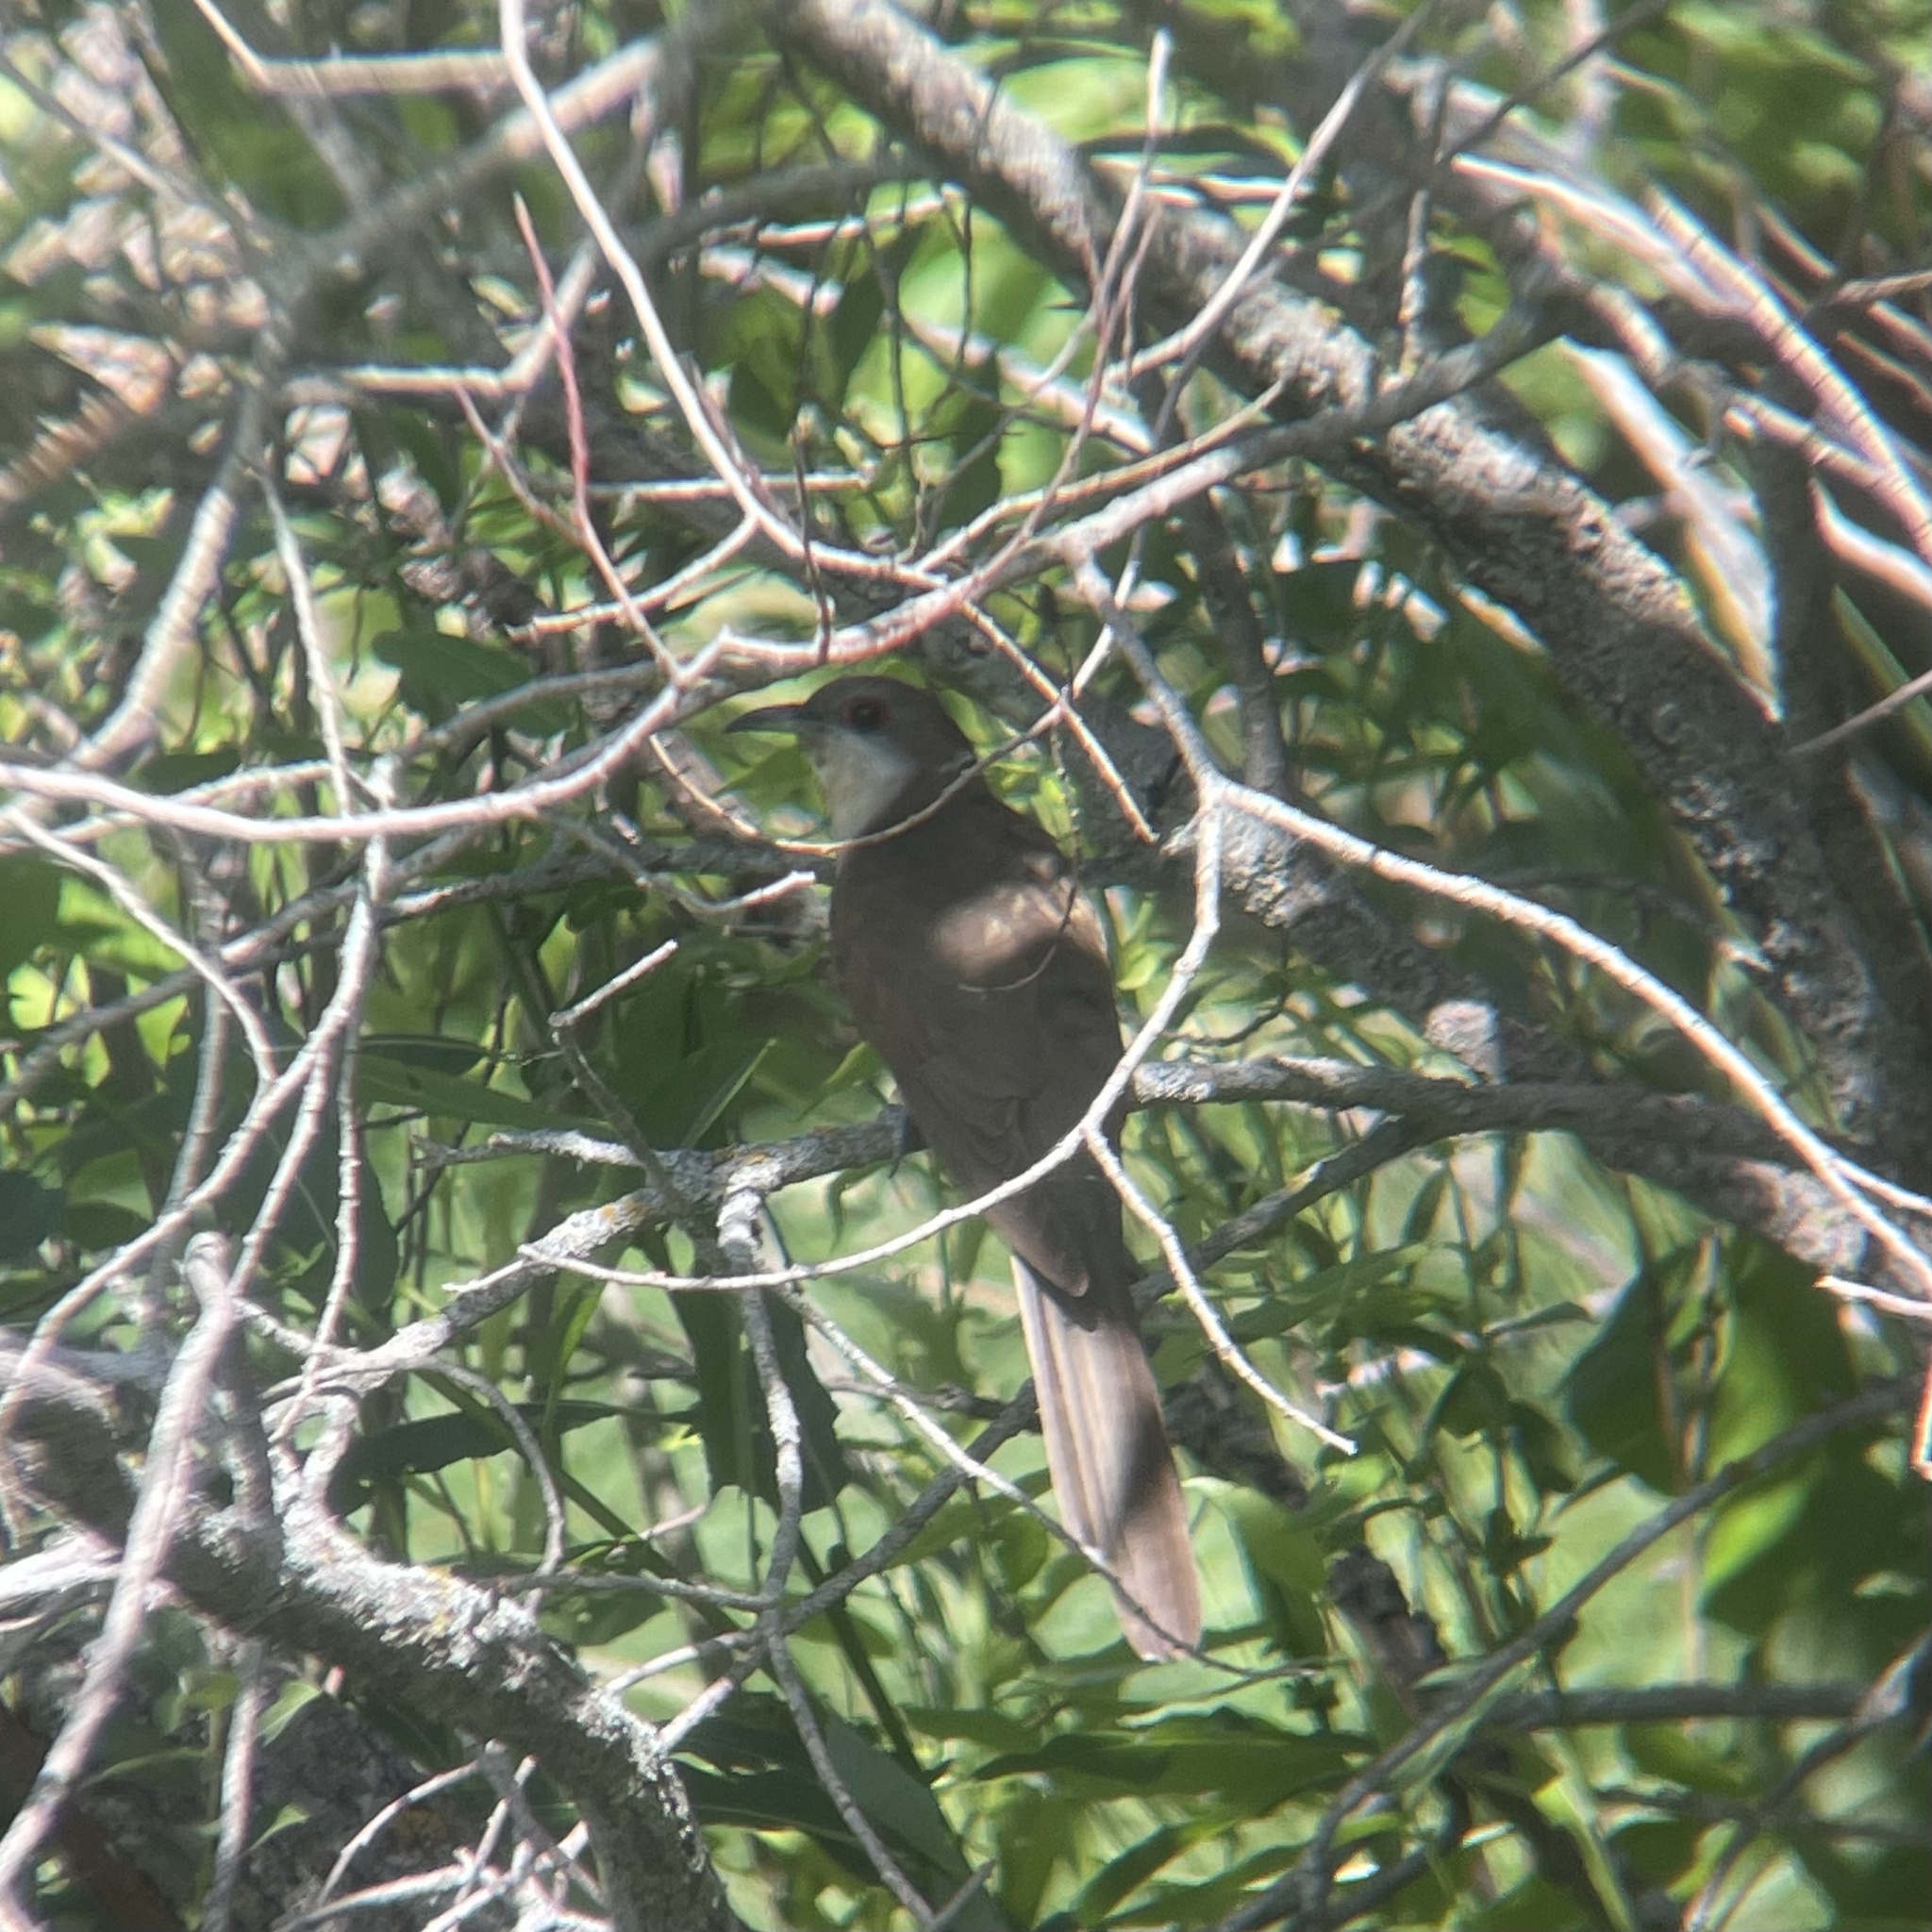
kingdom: Animalia
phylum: Chordata
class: Aves
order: Cuculiformes
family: Cuculidae
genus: Coccyzus
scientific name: Coccyzus erythropthalmus
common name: Black-billed cuckoo
